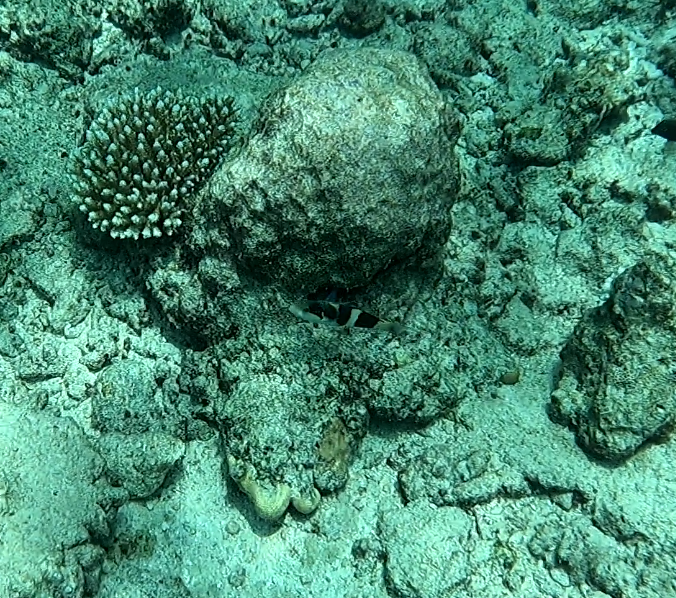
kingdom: Animalia
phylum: Chordata
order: Perciformes
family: Labridae
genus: Thalassoma
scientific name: Thalassoma nigrofasciatum
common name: Black-barred wrasse
